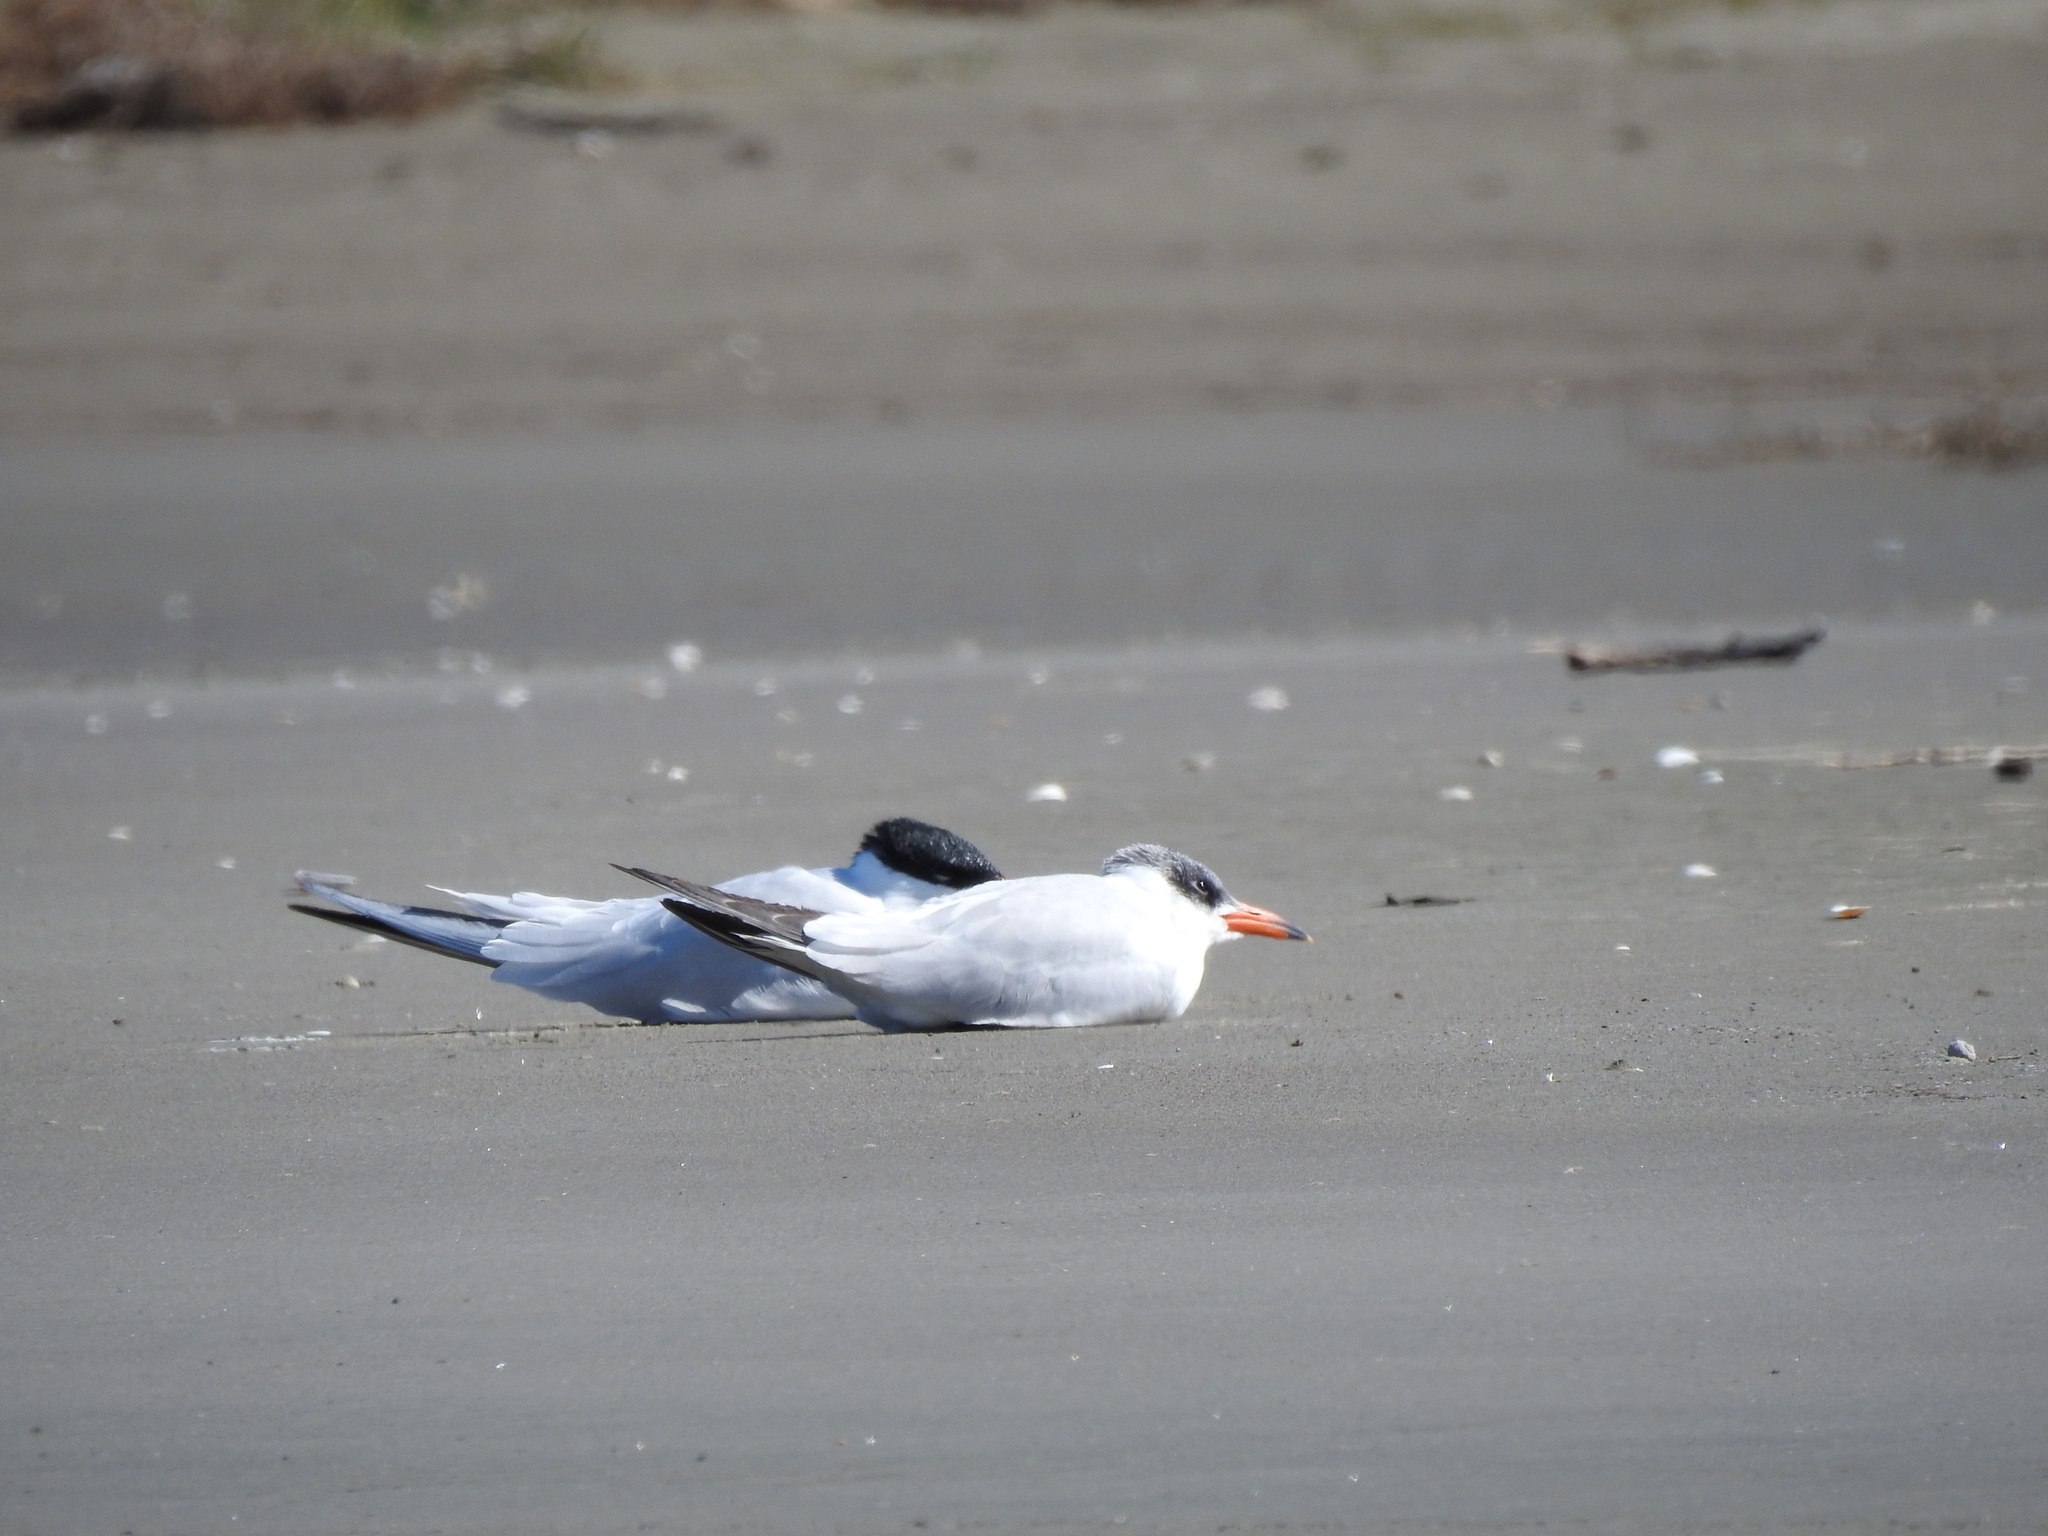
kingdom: Animalia
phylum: Chordata
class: Aves
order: Charadriiformes
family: Laridae
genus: Hydroprogne
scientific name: Hydroprogne caspia
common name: Caspian tern
